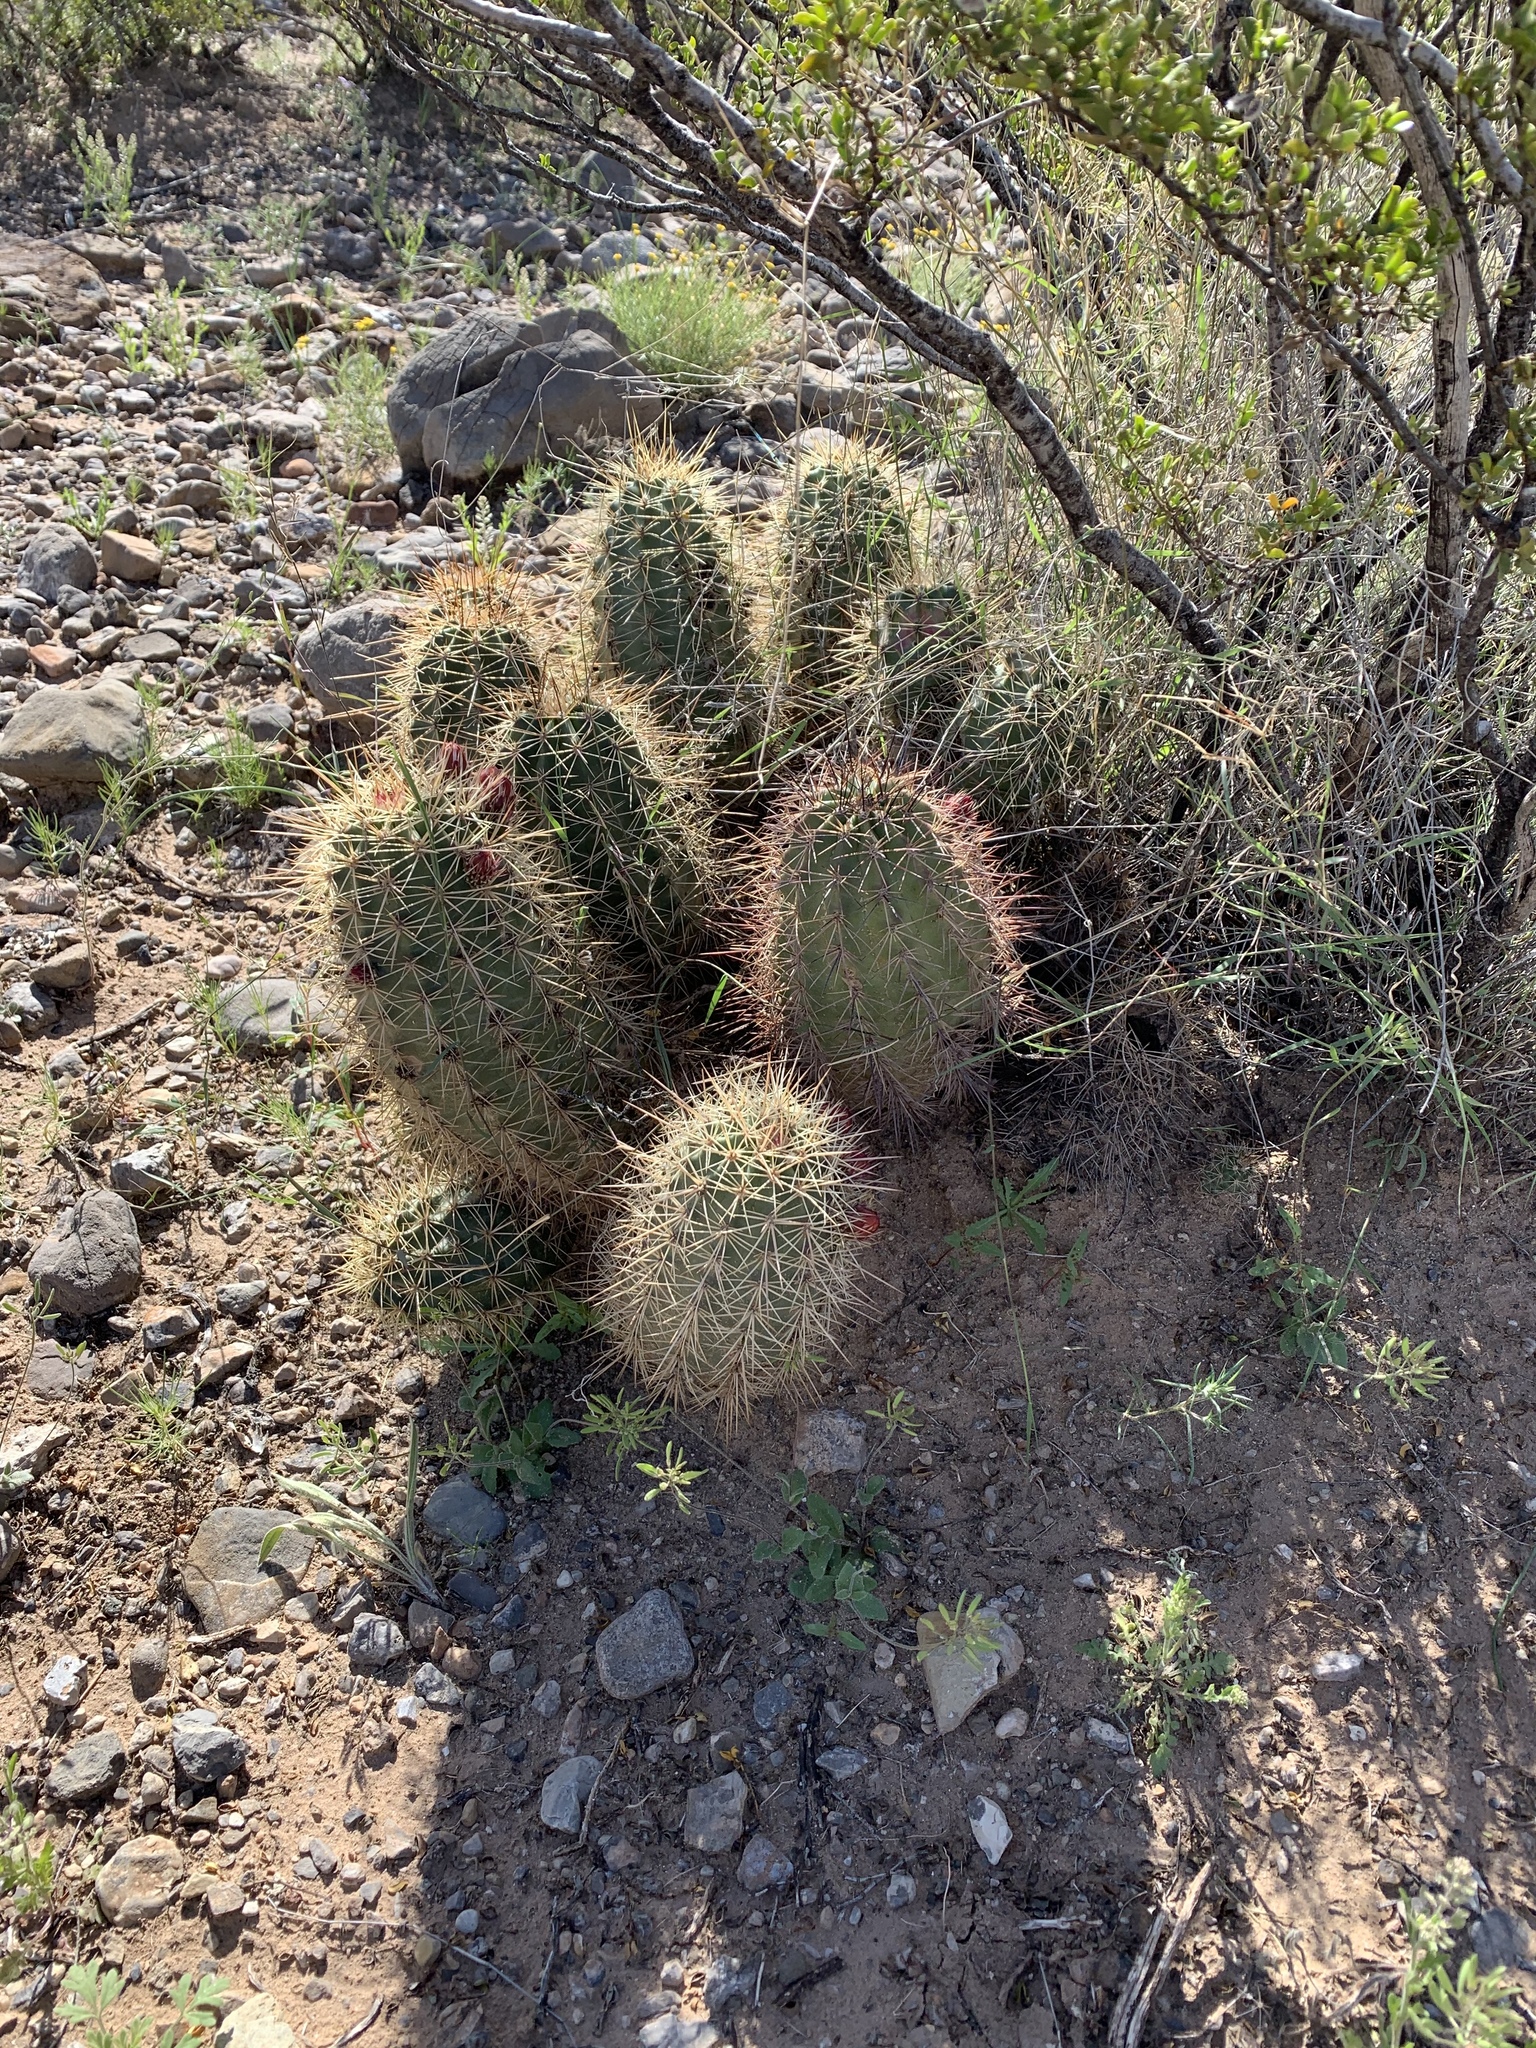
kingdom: Plantae
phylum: Tracheophyta
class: Magnoliopsida
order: Caryophyllales
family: Cactaceae
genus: Echinocereus
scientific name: Echinocereus coccineus
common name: Scarlet hedgehog cactus
